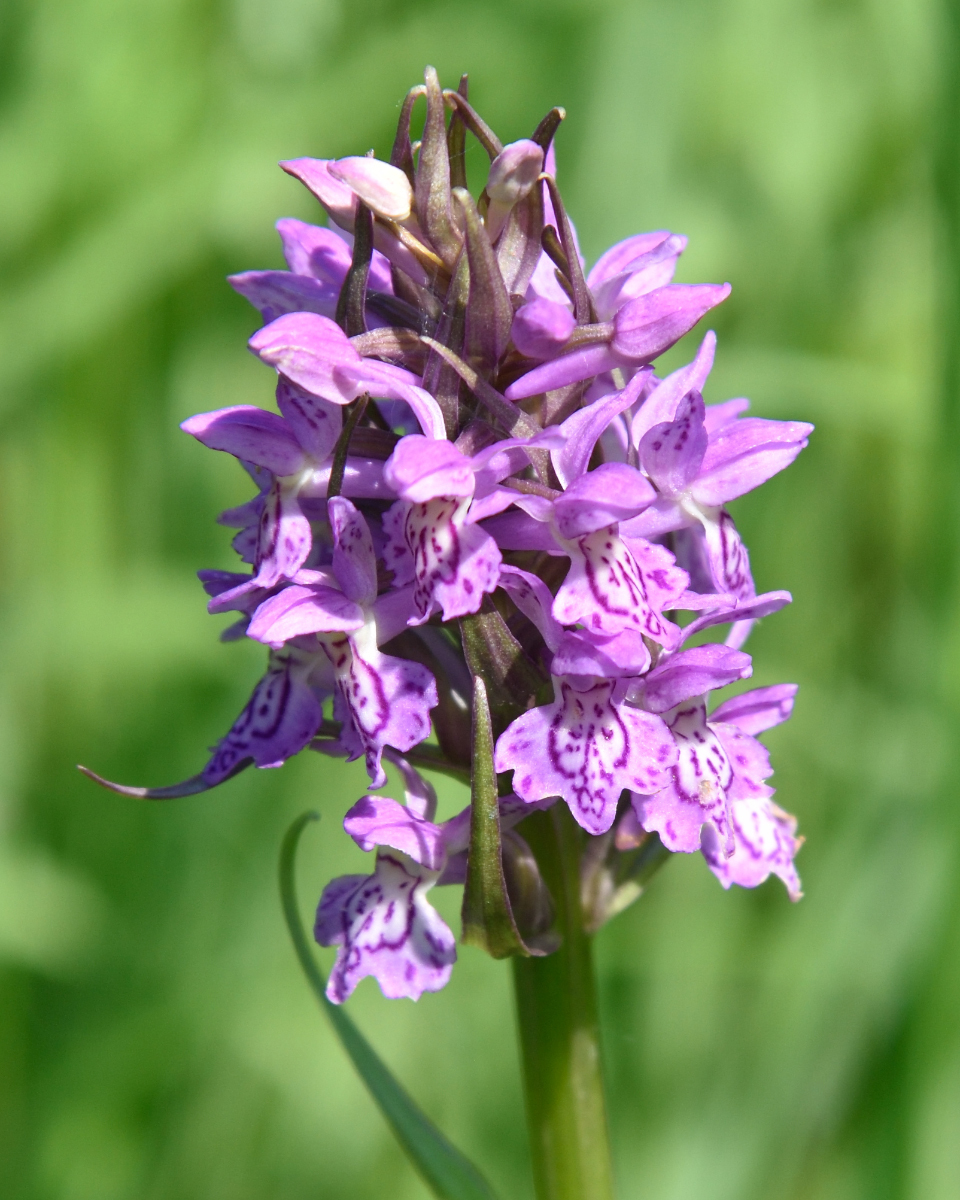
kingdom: Plantae
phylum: Tracheophyta
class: Liliopsida
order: Asparagales
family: Orchidaceae
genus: Dactylorhiza
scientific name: Dactylorhiza majalis
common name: Marsh orchid
